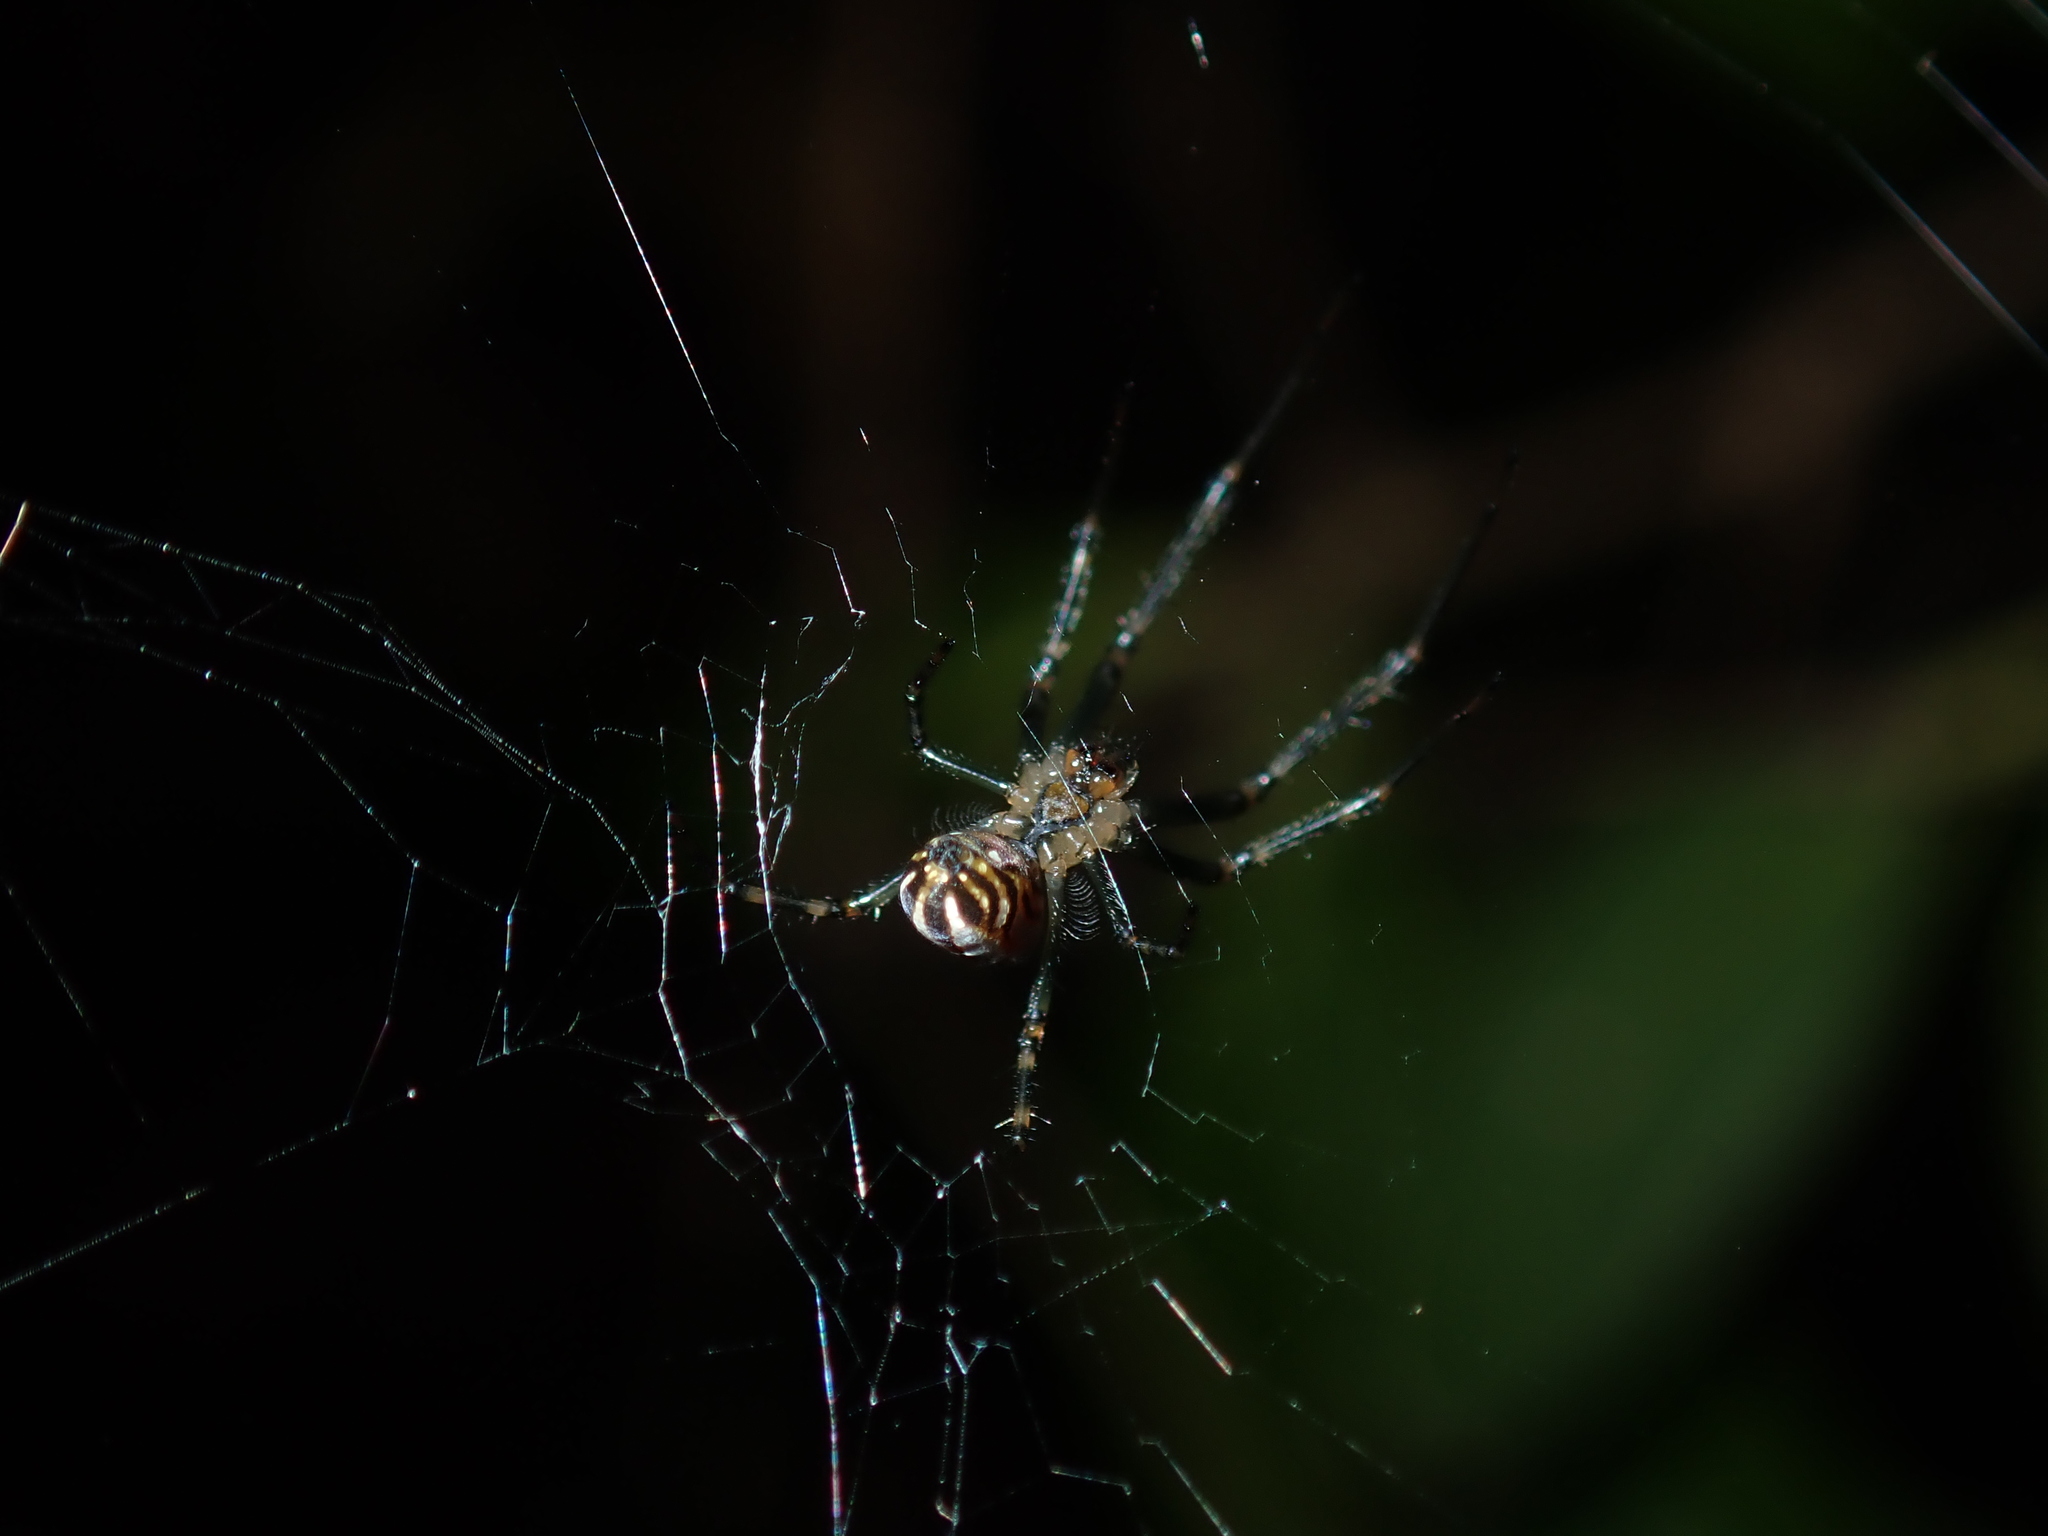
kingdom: Animalia
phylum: Arthropoda
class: Arachnida
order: Araneae
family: Tetragnathidae
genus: Leucauge
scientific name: Leucauge dromedaria
